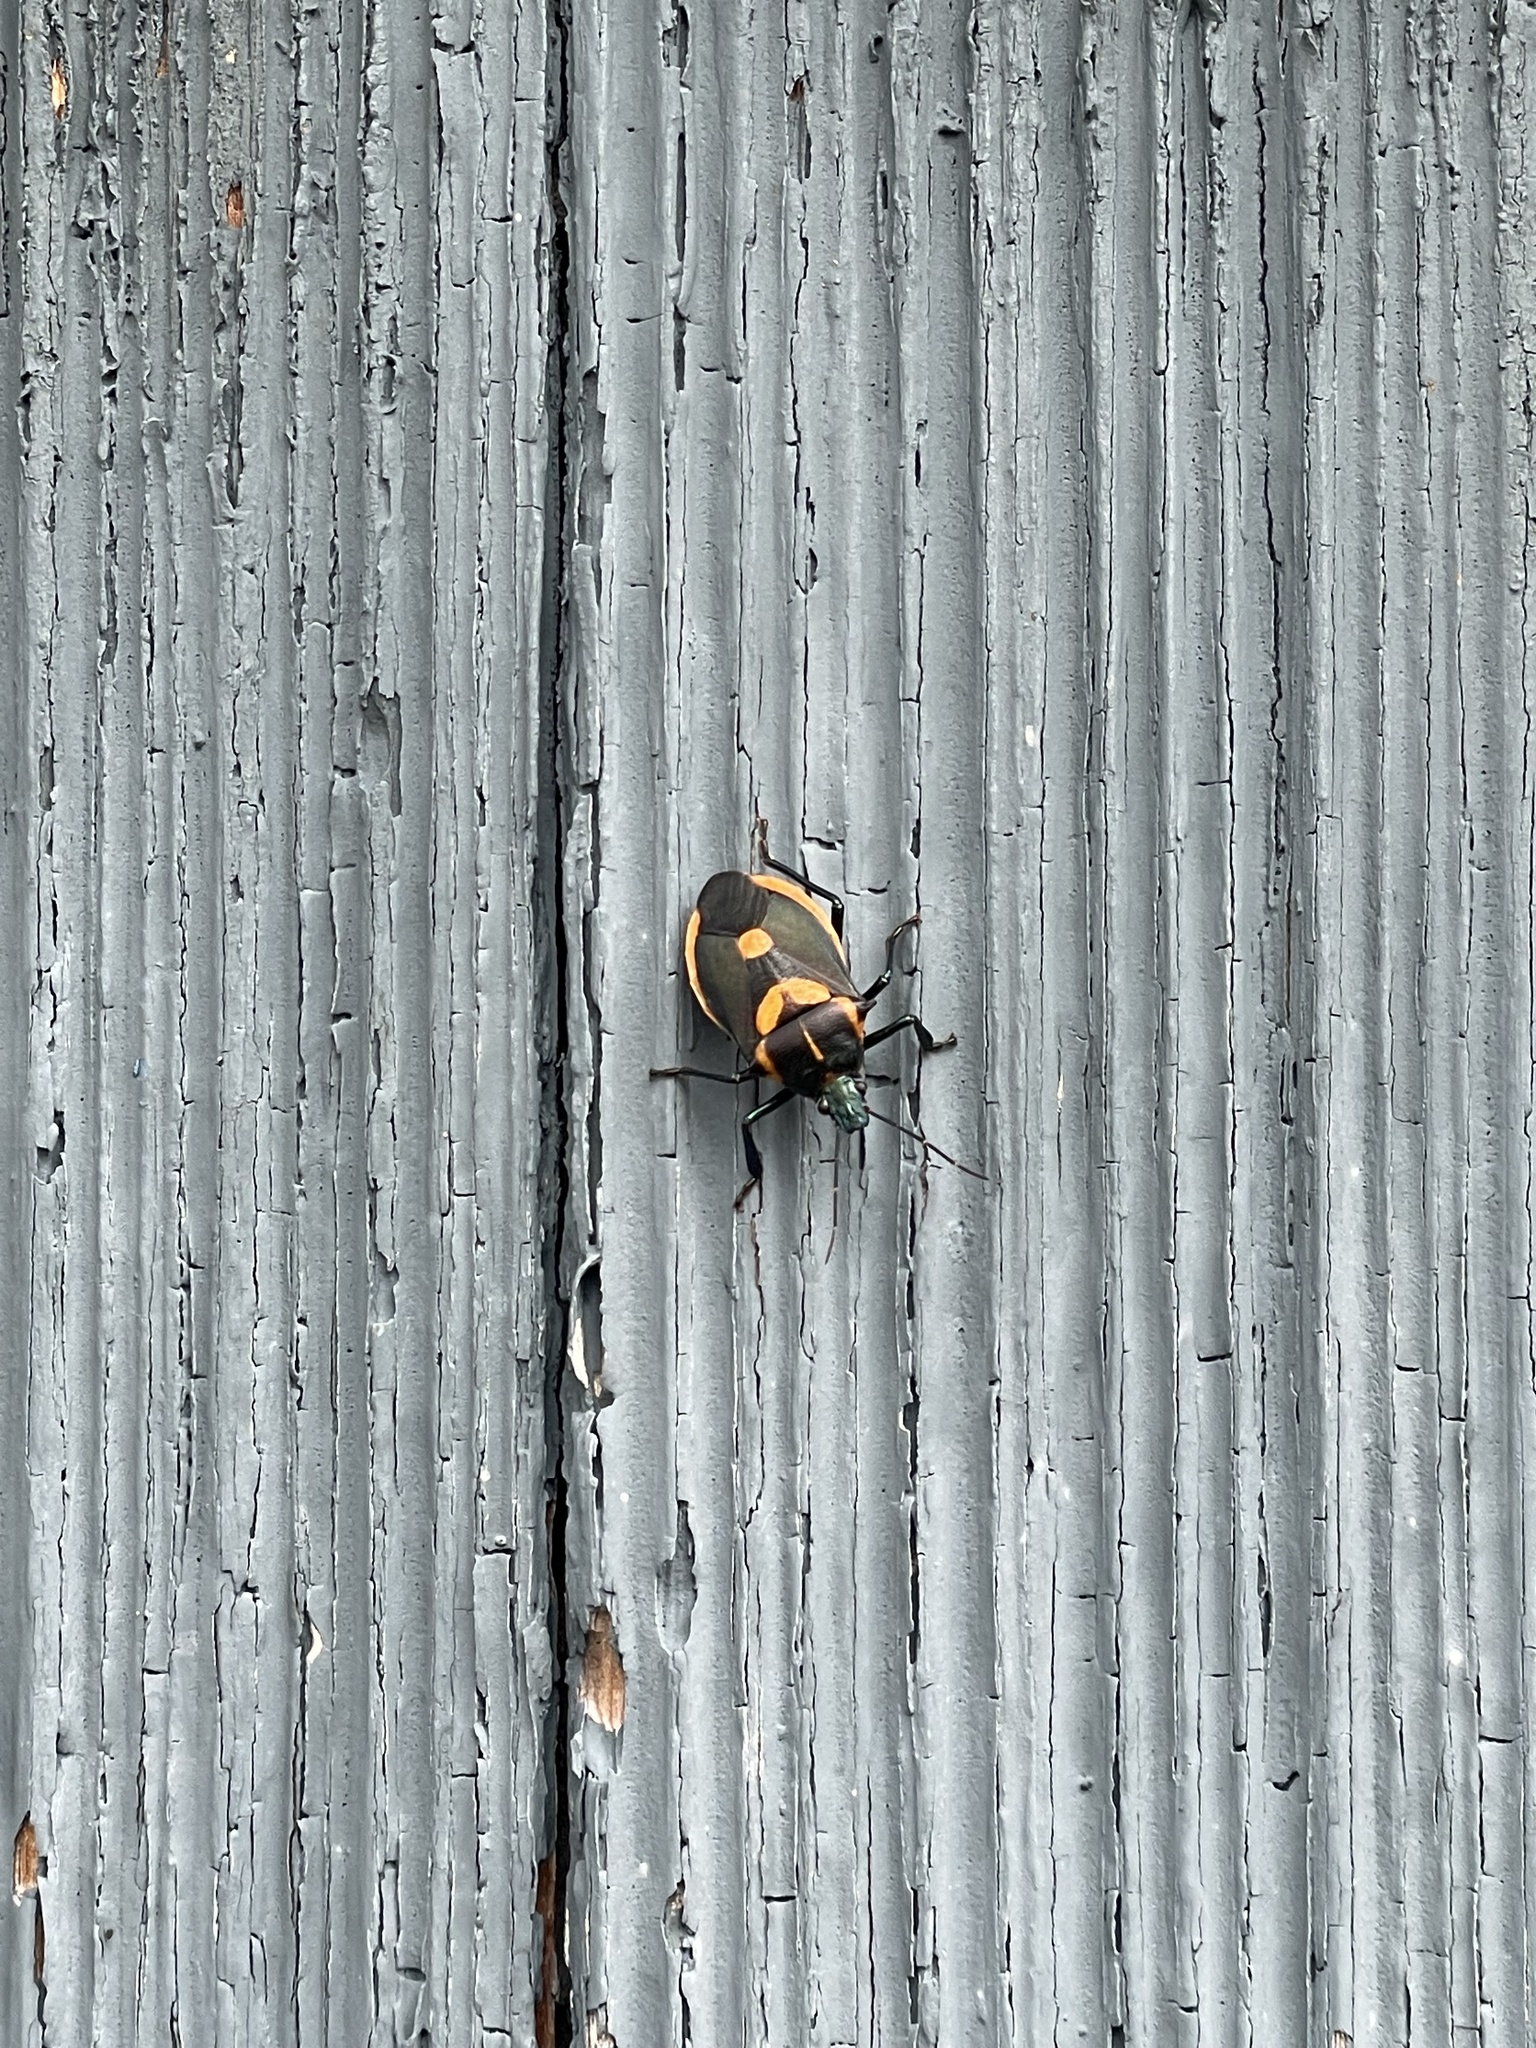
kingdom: Animalia
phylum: Arthropoda
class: Insecta
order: Hemiptera
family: Pentatomidae
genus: Euthyrhynchus
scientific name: Euthyrhynchus floridanus
